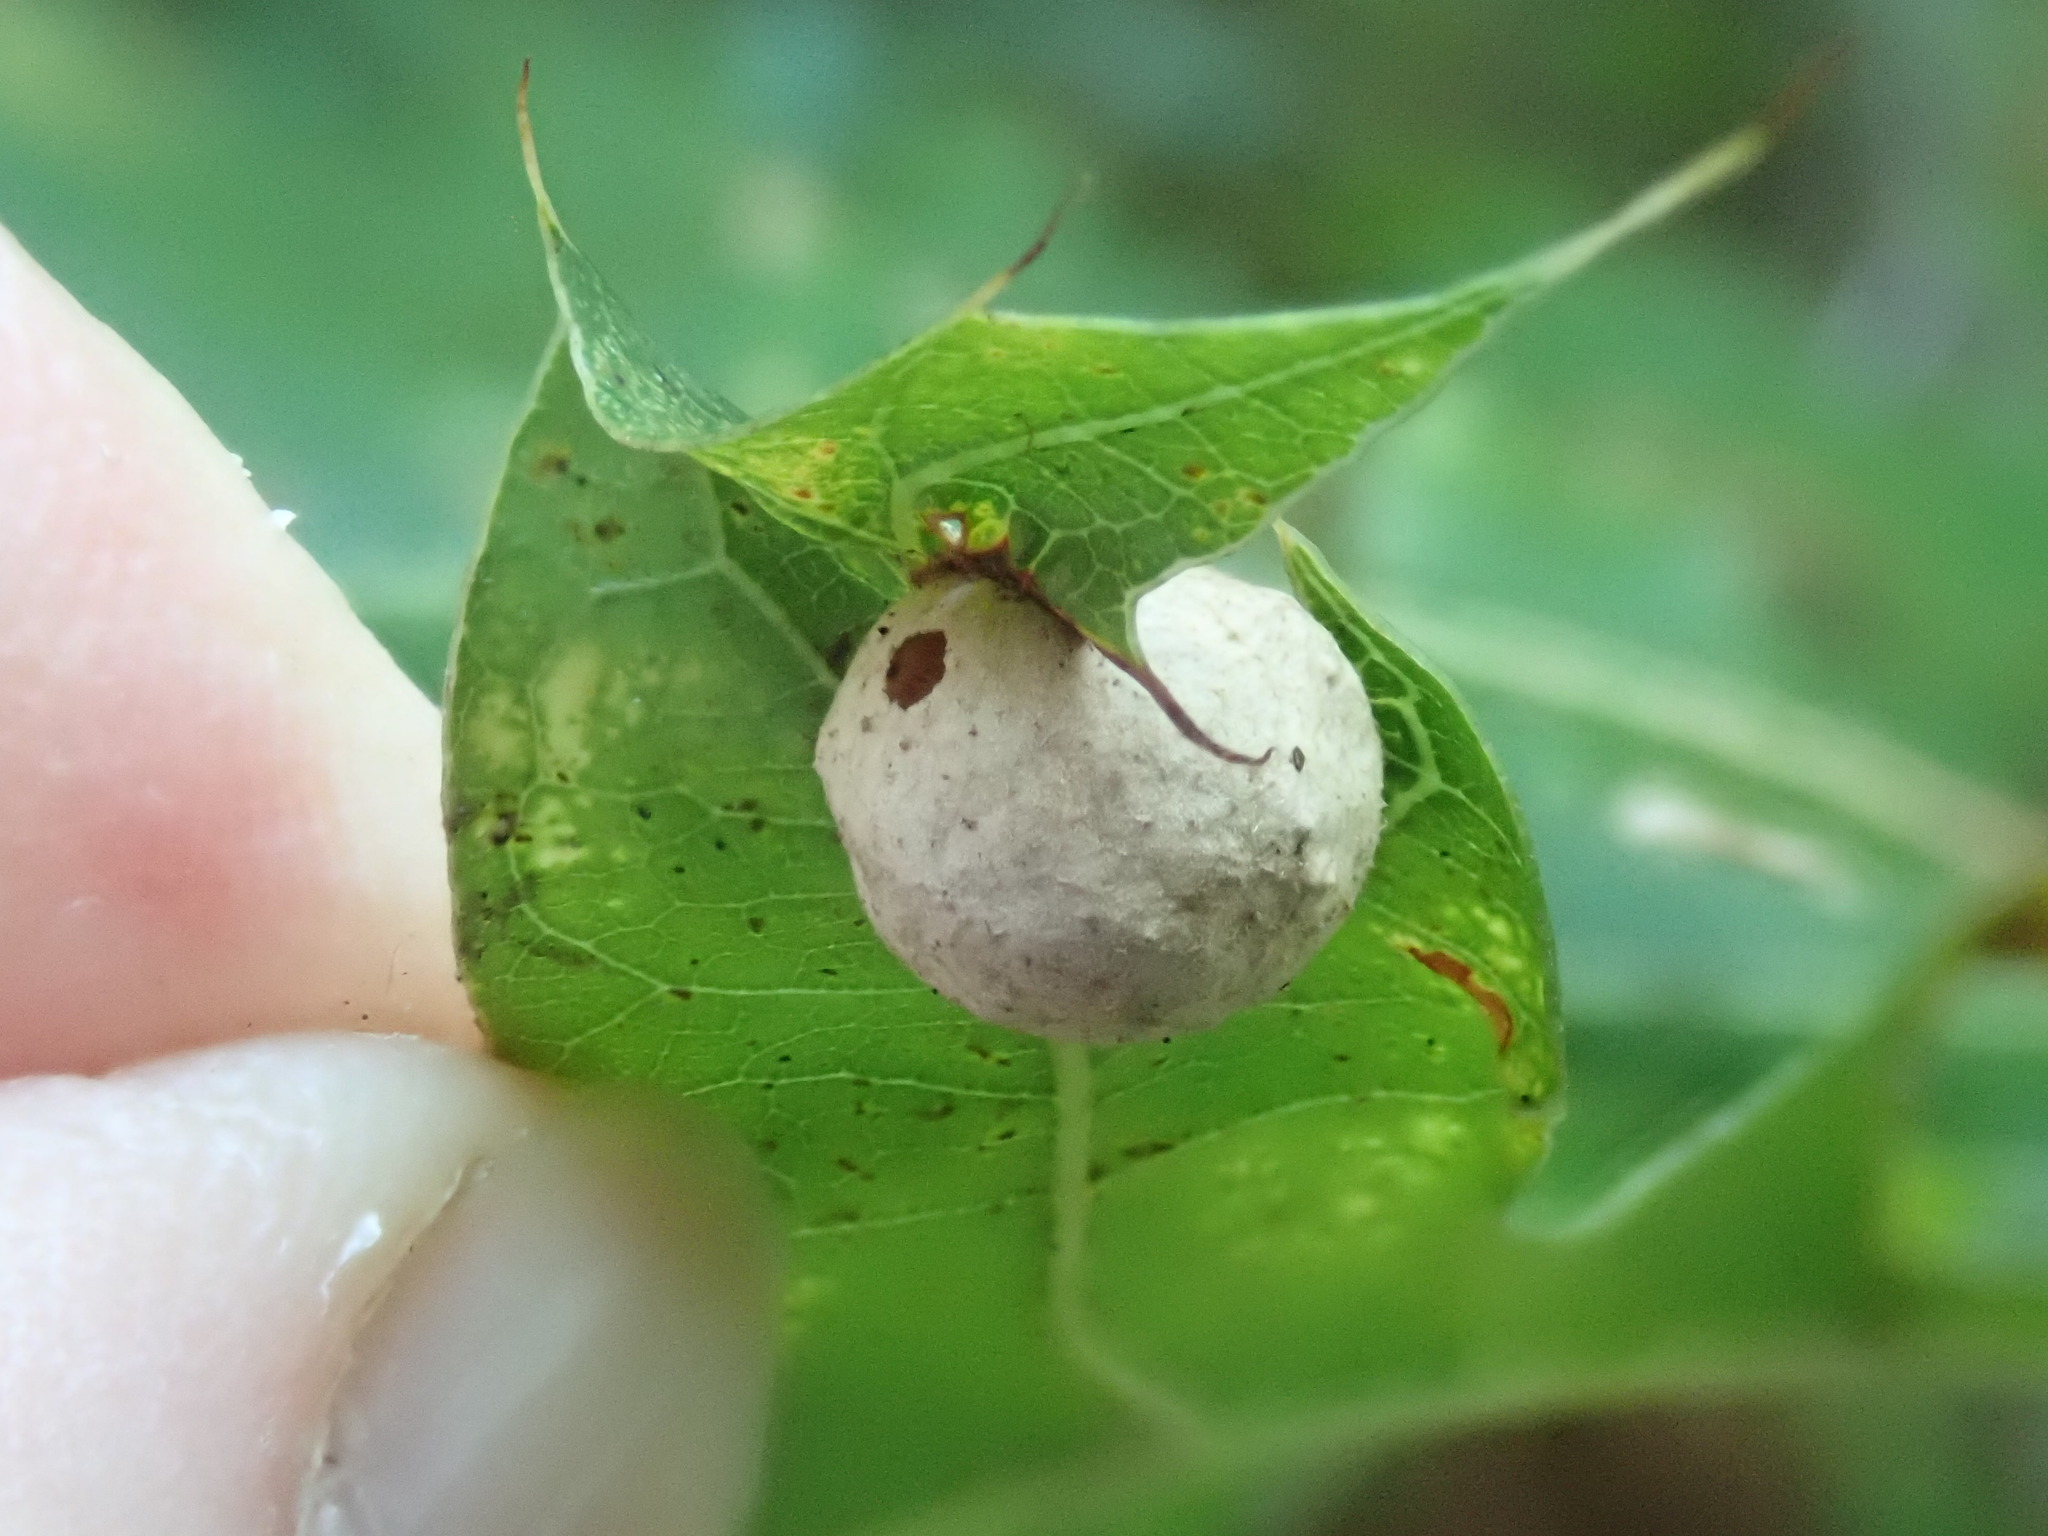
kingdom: Animalia
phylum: Arthropoda
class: Insecta
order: Hymenoptera
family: Cynipidae
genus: Amphibolips
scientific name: Amphibolips
